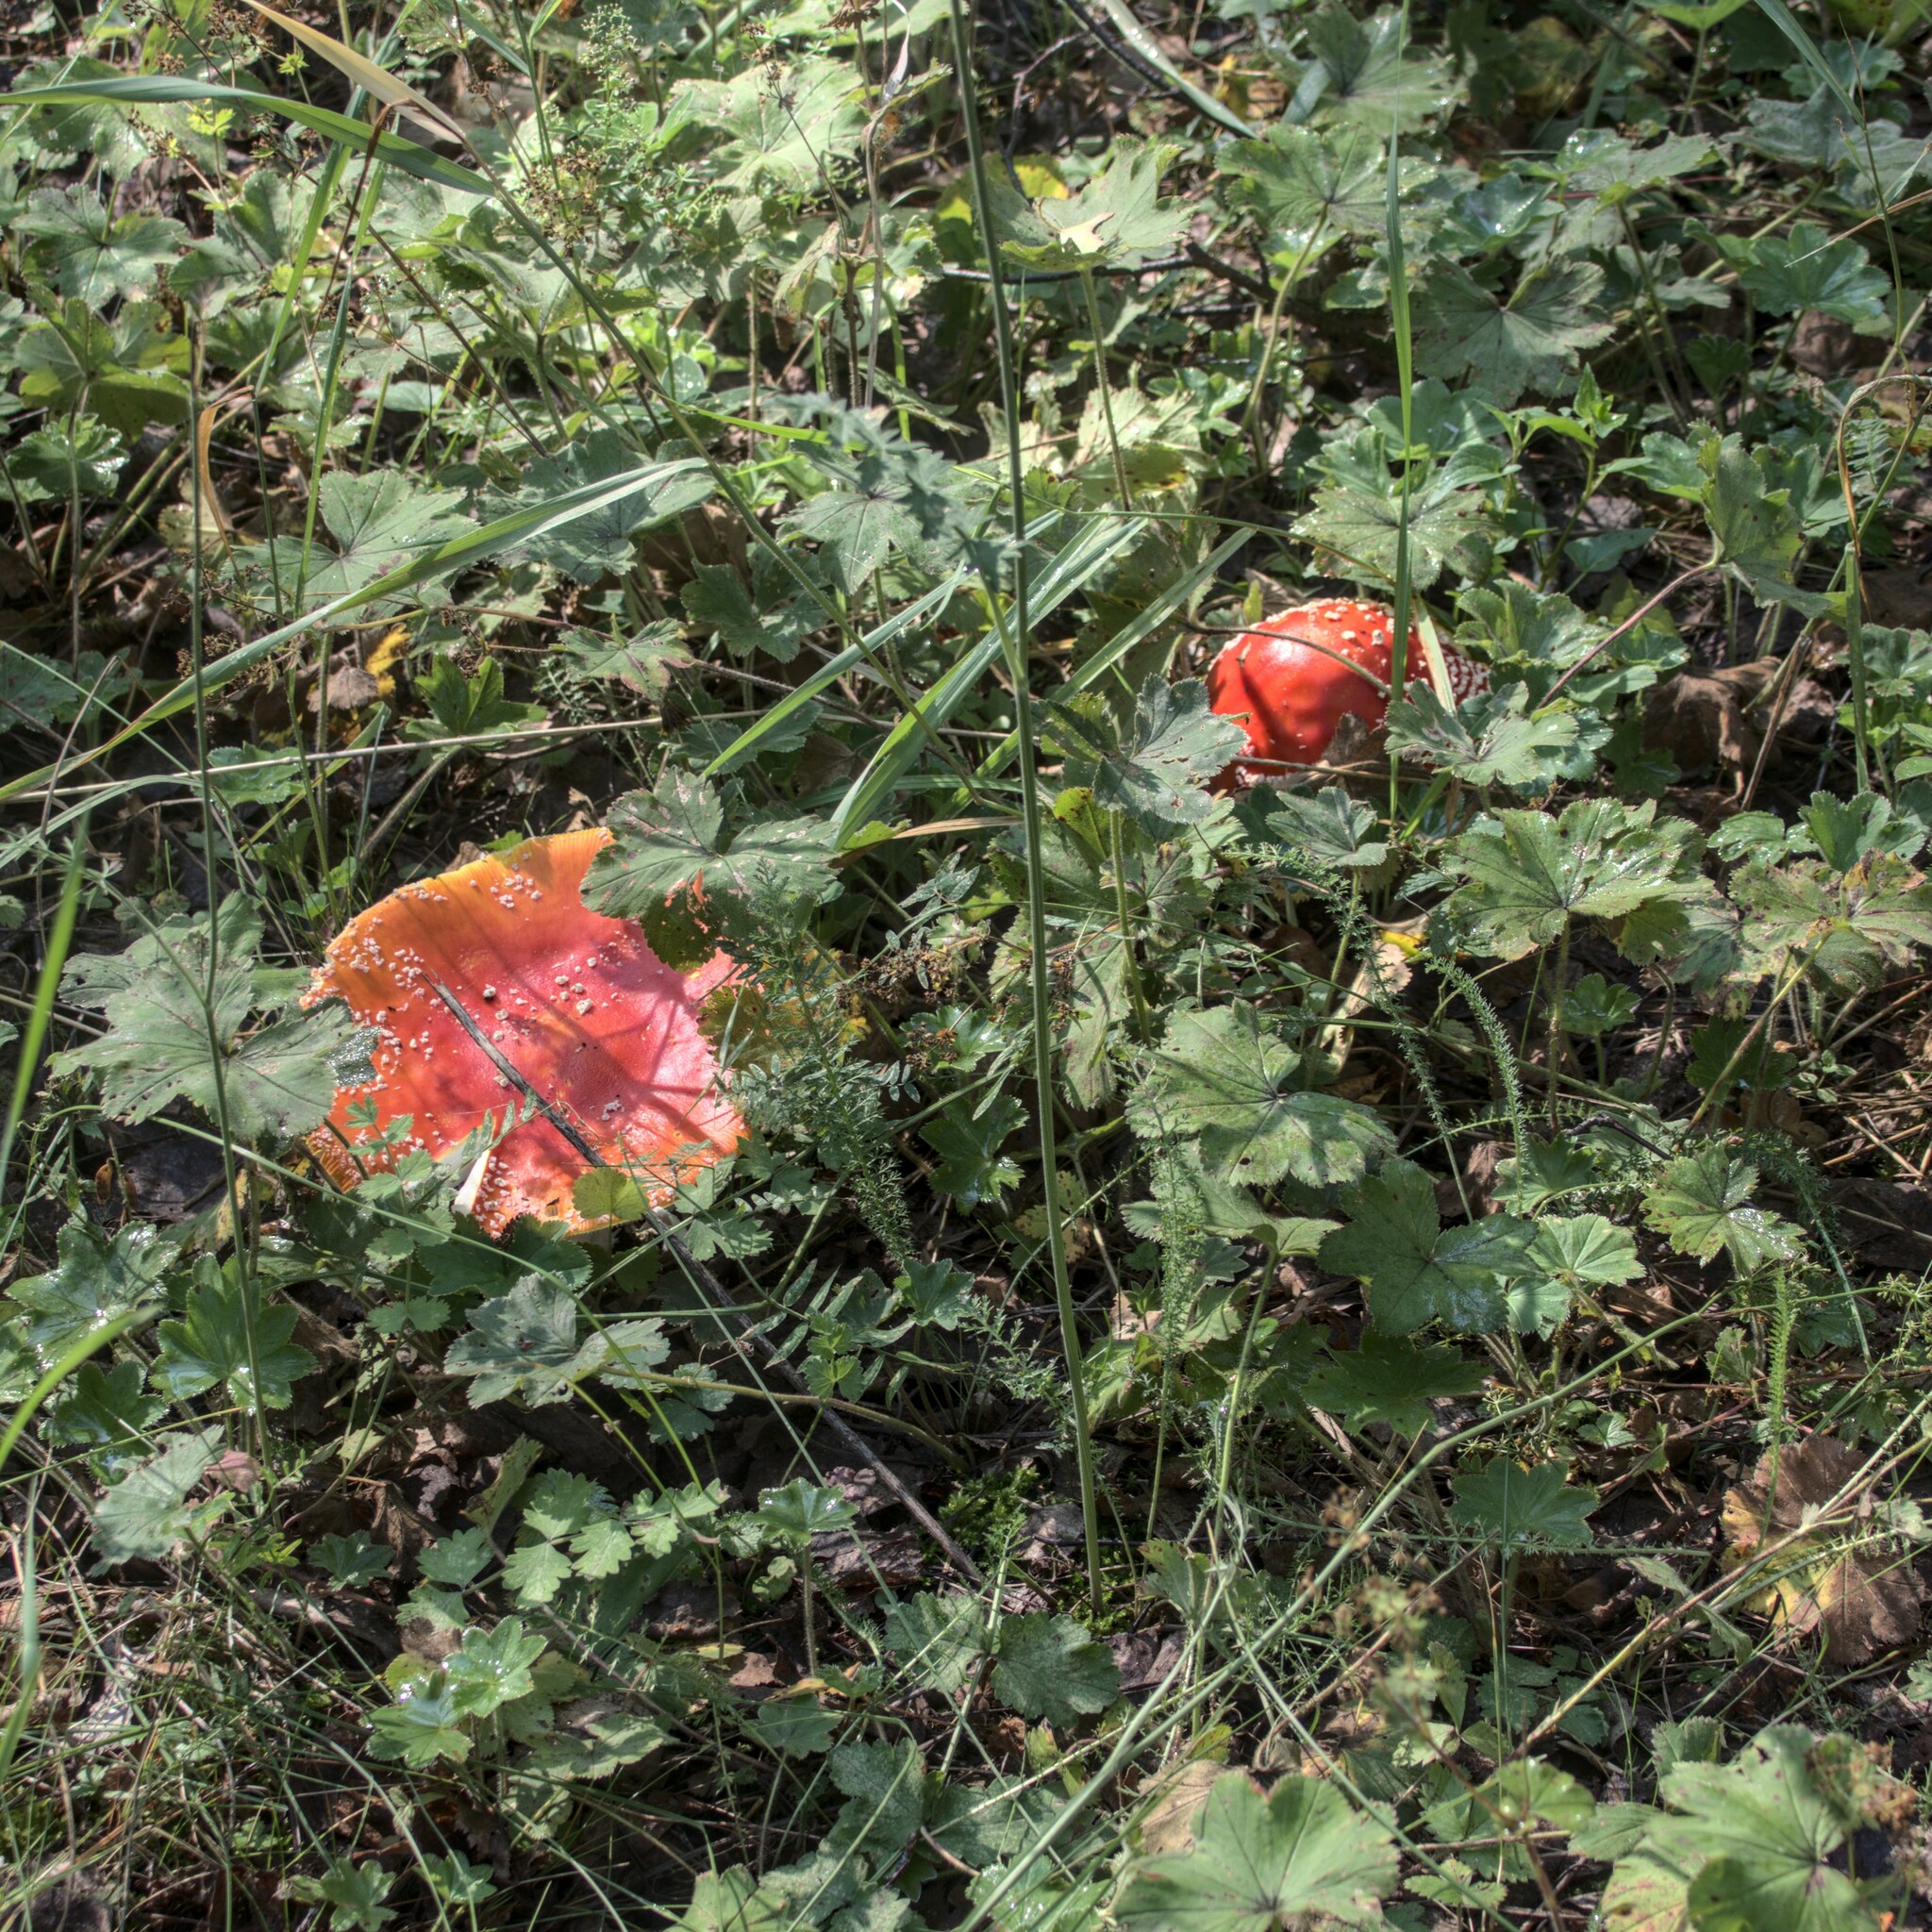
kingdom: Fungi
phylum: Basidiomycota
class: Agaricomycetes
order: Agaricales
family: Amanitaceae
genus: Amanita
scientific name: Amanita muscaria
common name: Fly agaric
